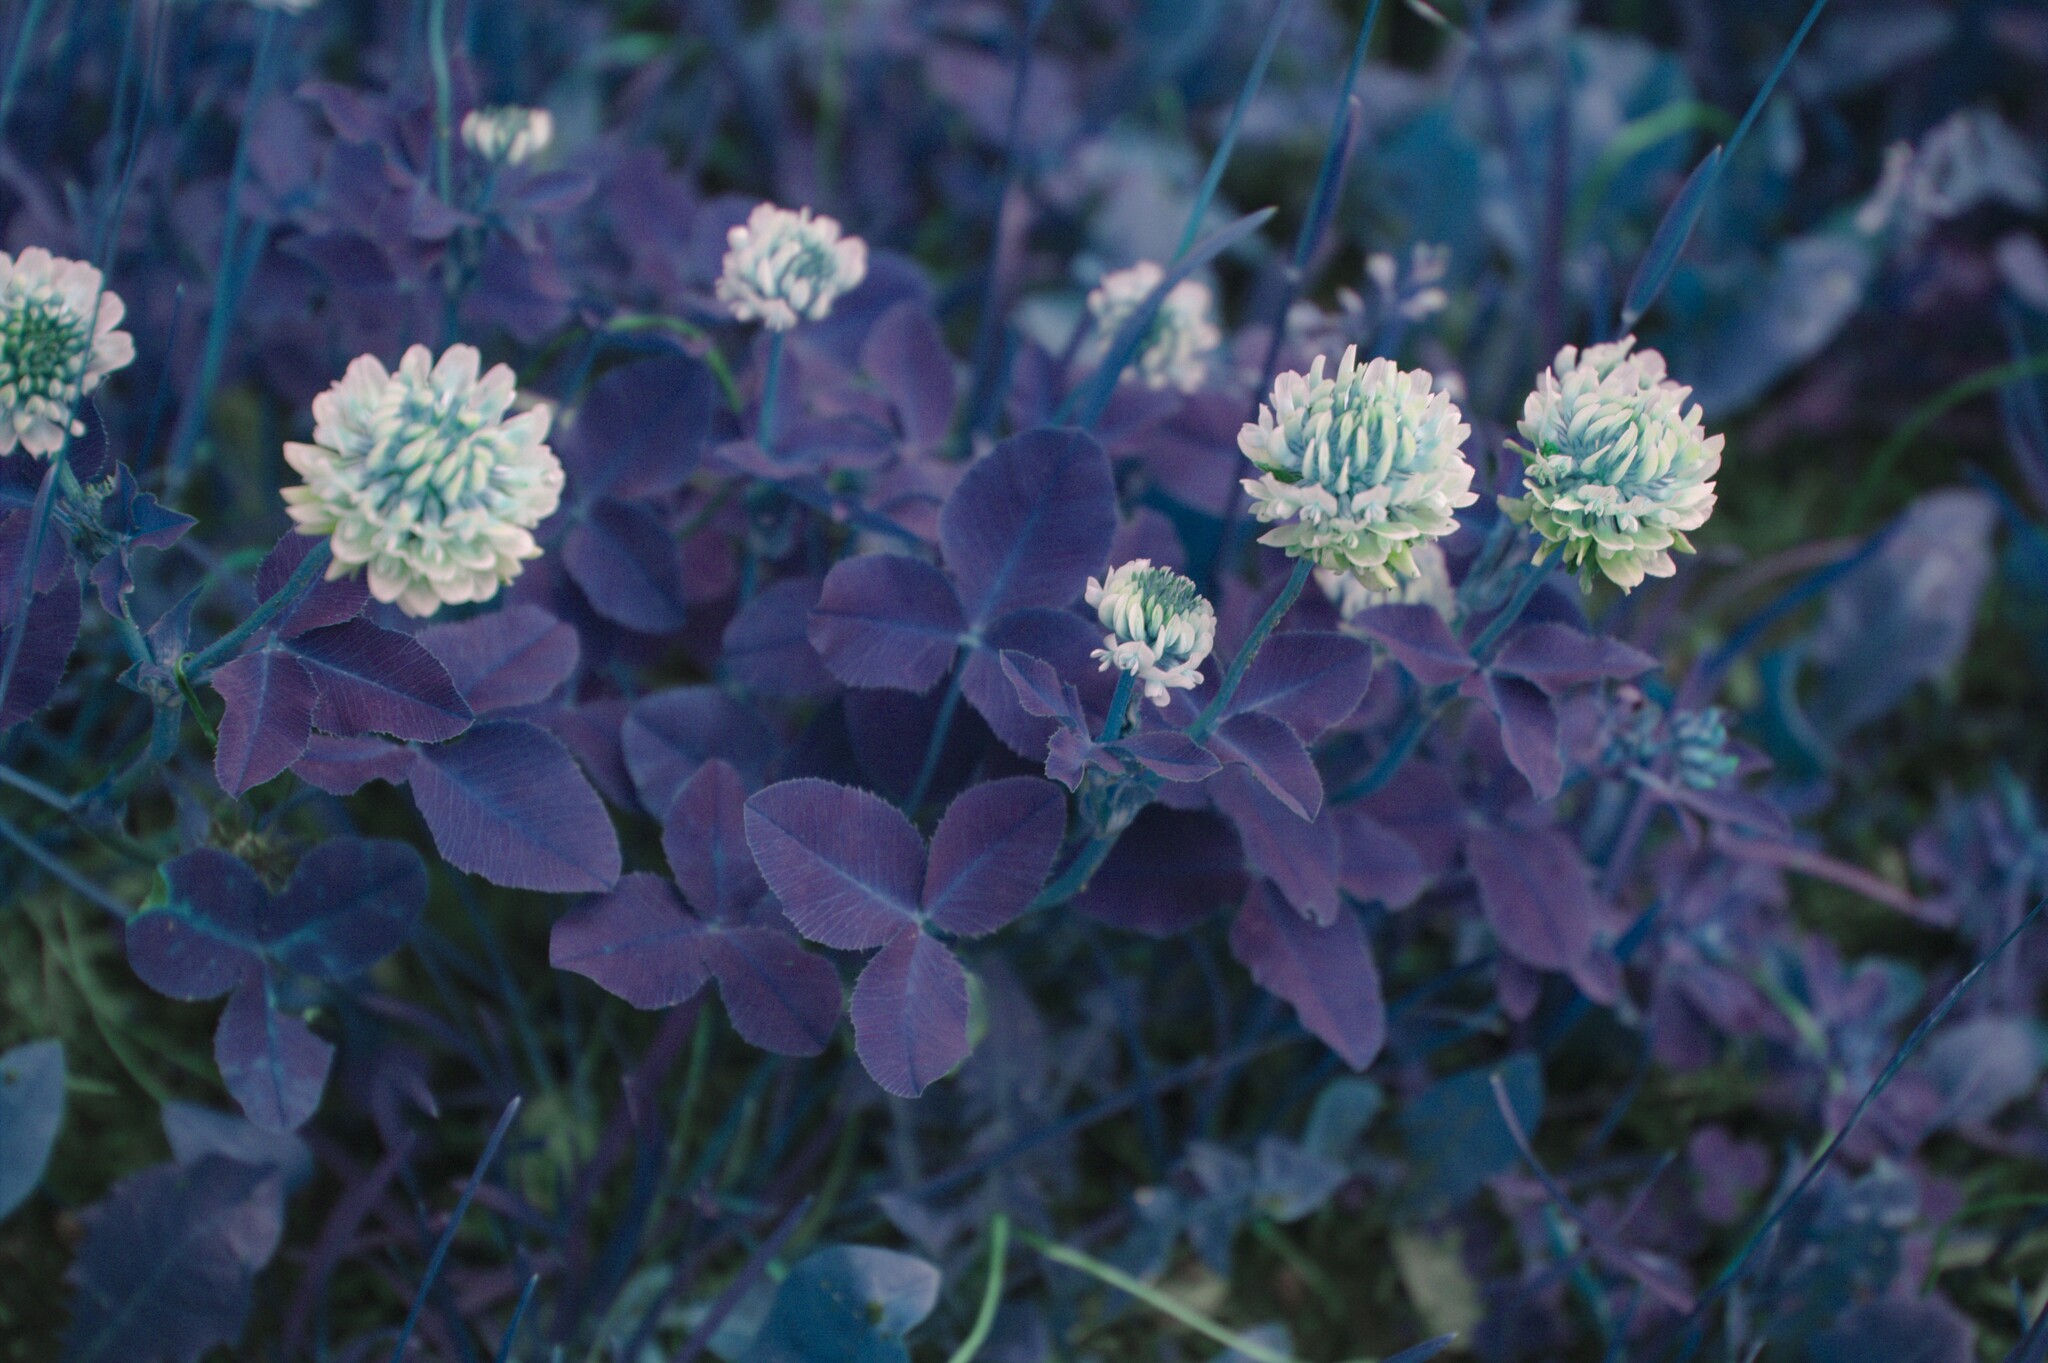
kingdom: Plantae
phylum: Tracheophyta
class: Magnoliopsida
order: Fabales
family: Fabaceae
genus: Trifolium
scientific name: Trifolium hybridum
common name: Alsike clover
